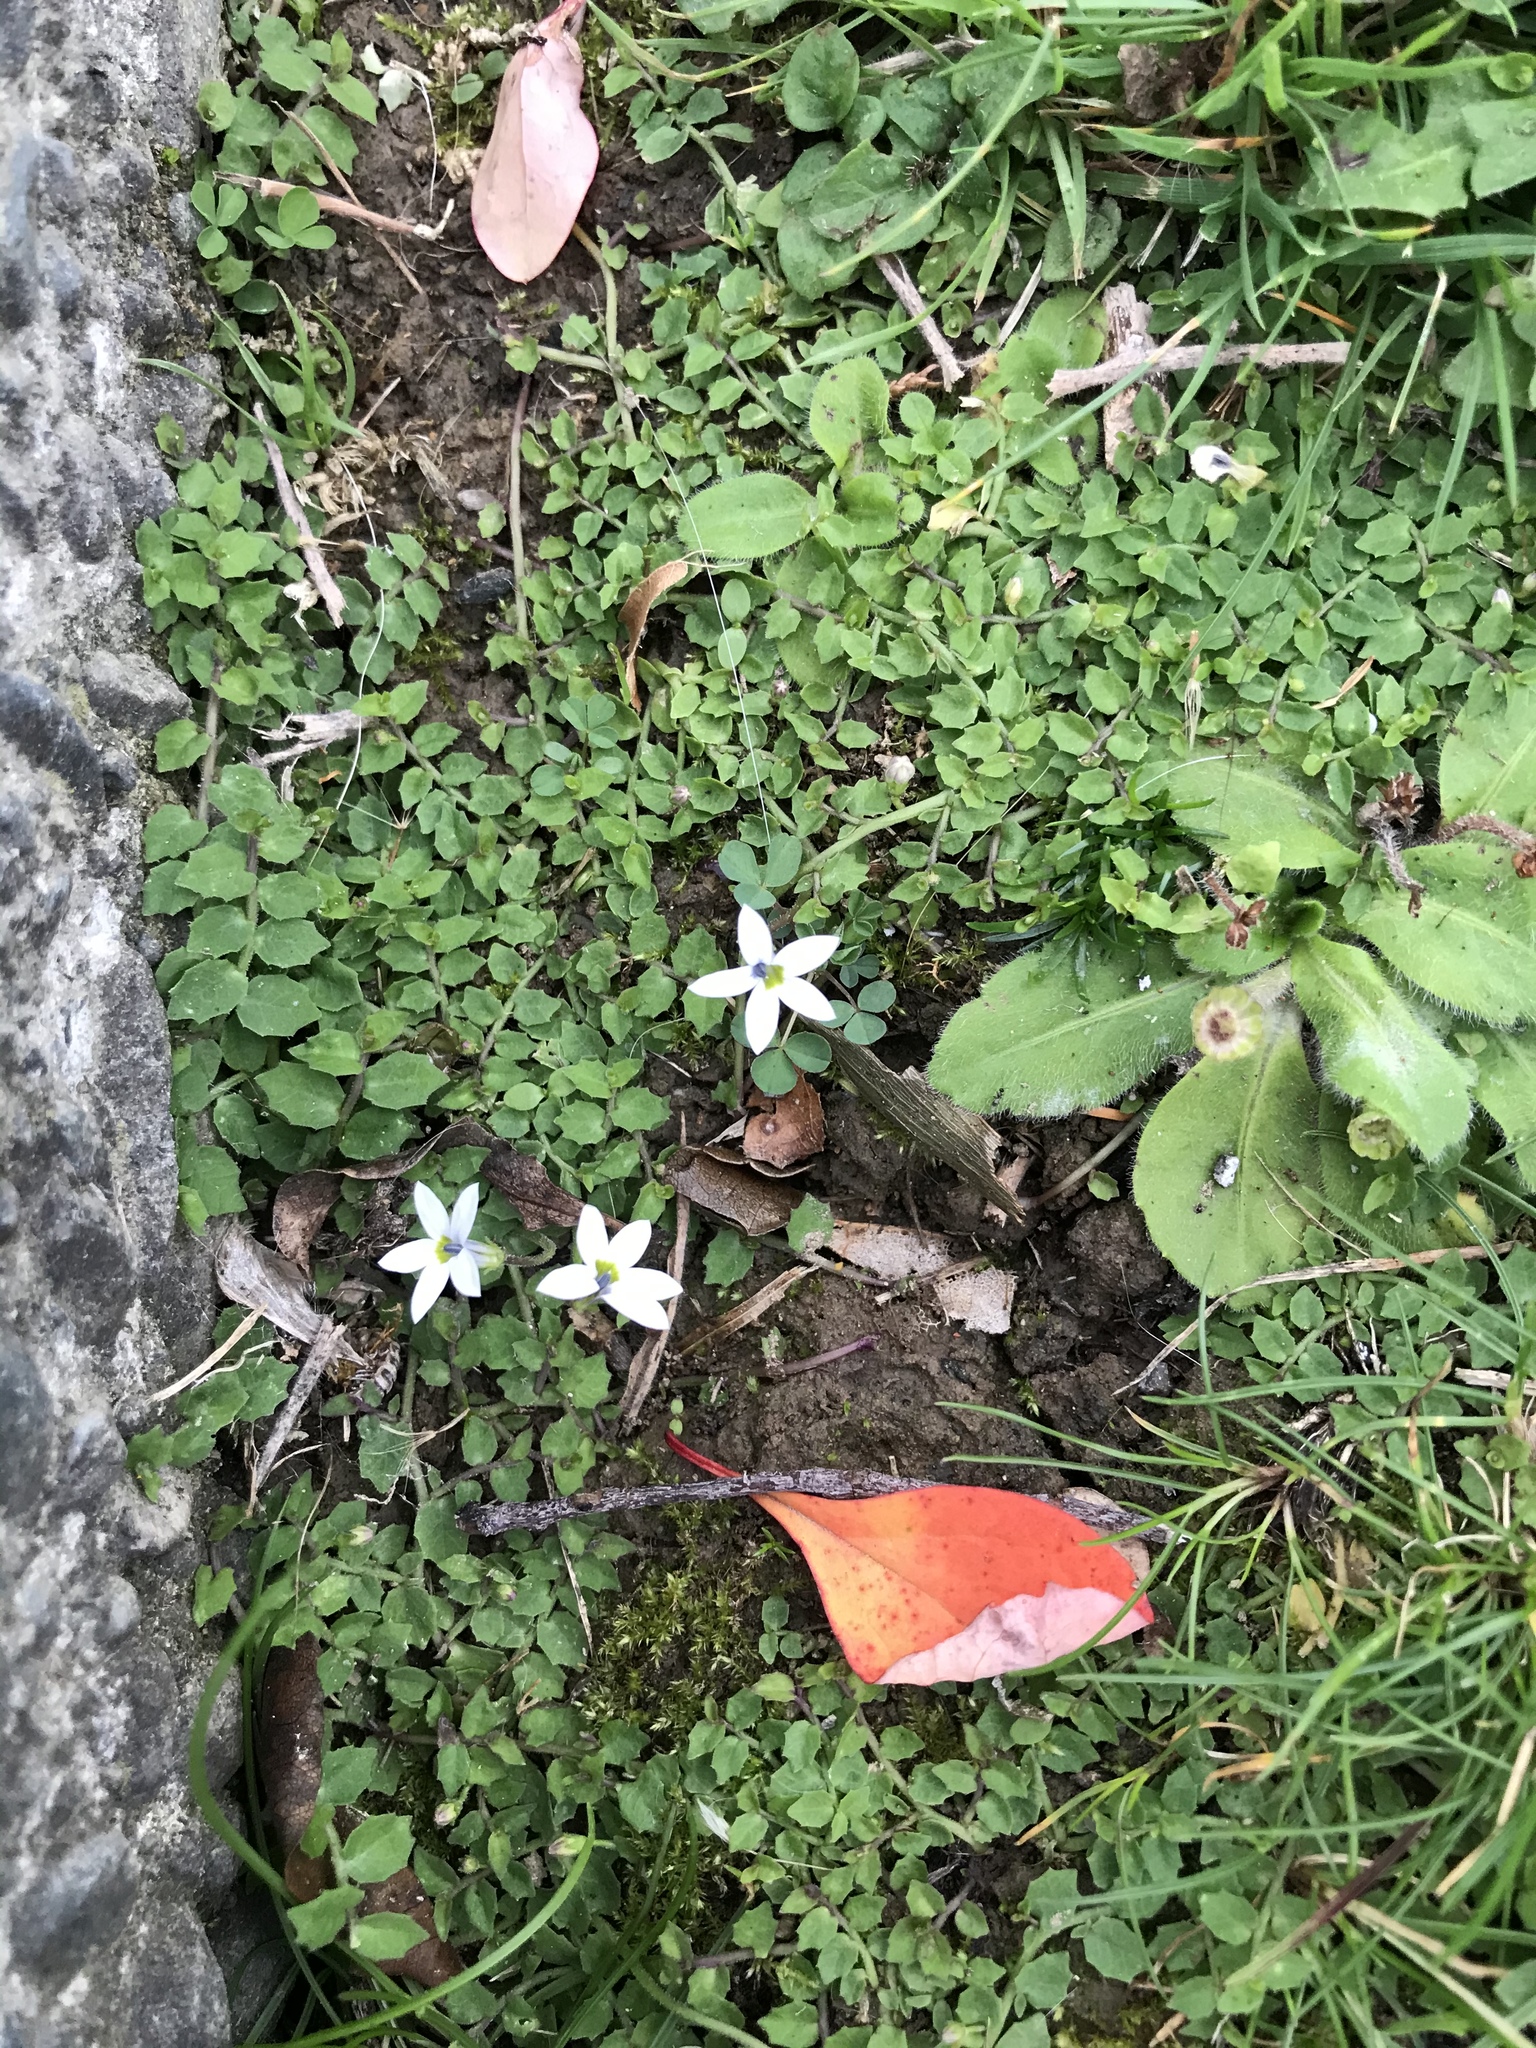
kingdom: Plantae
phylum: Tracheophyta
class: Magnoliopsida
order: Asterales
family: Campanulaceae
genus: Lobelia
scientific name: Lobelia angulata
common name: Lawn lobelia
